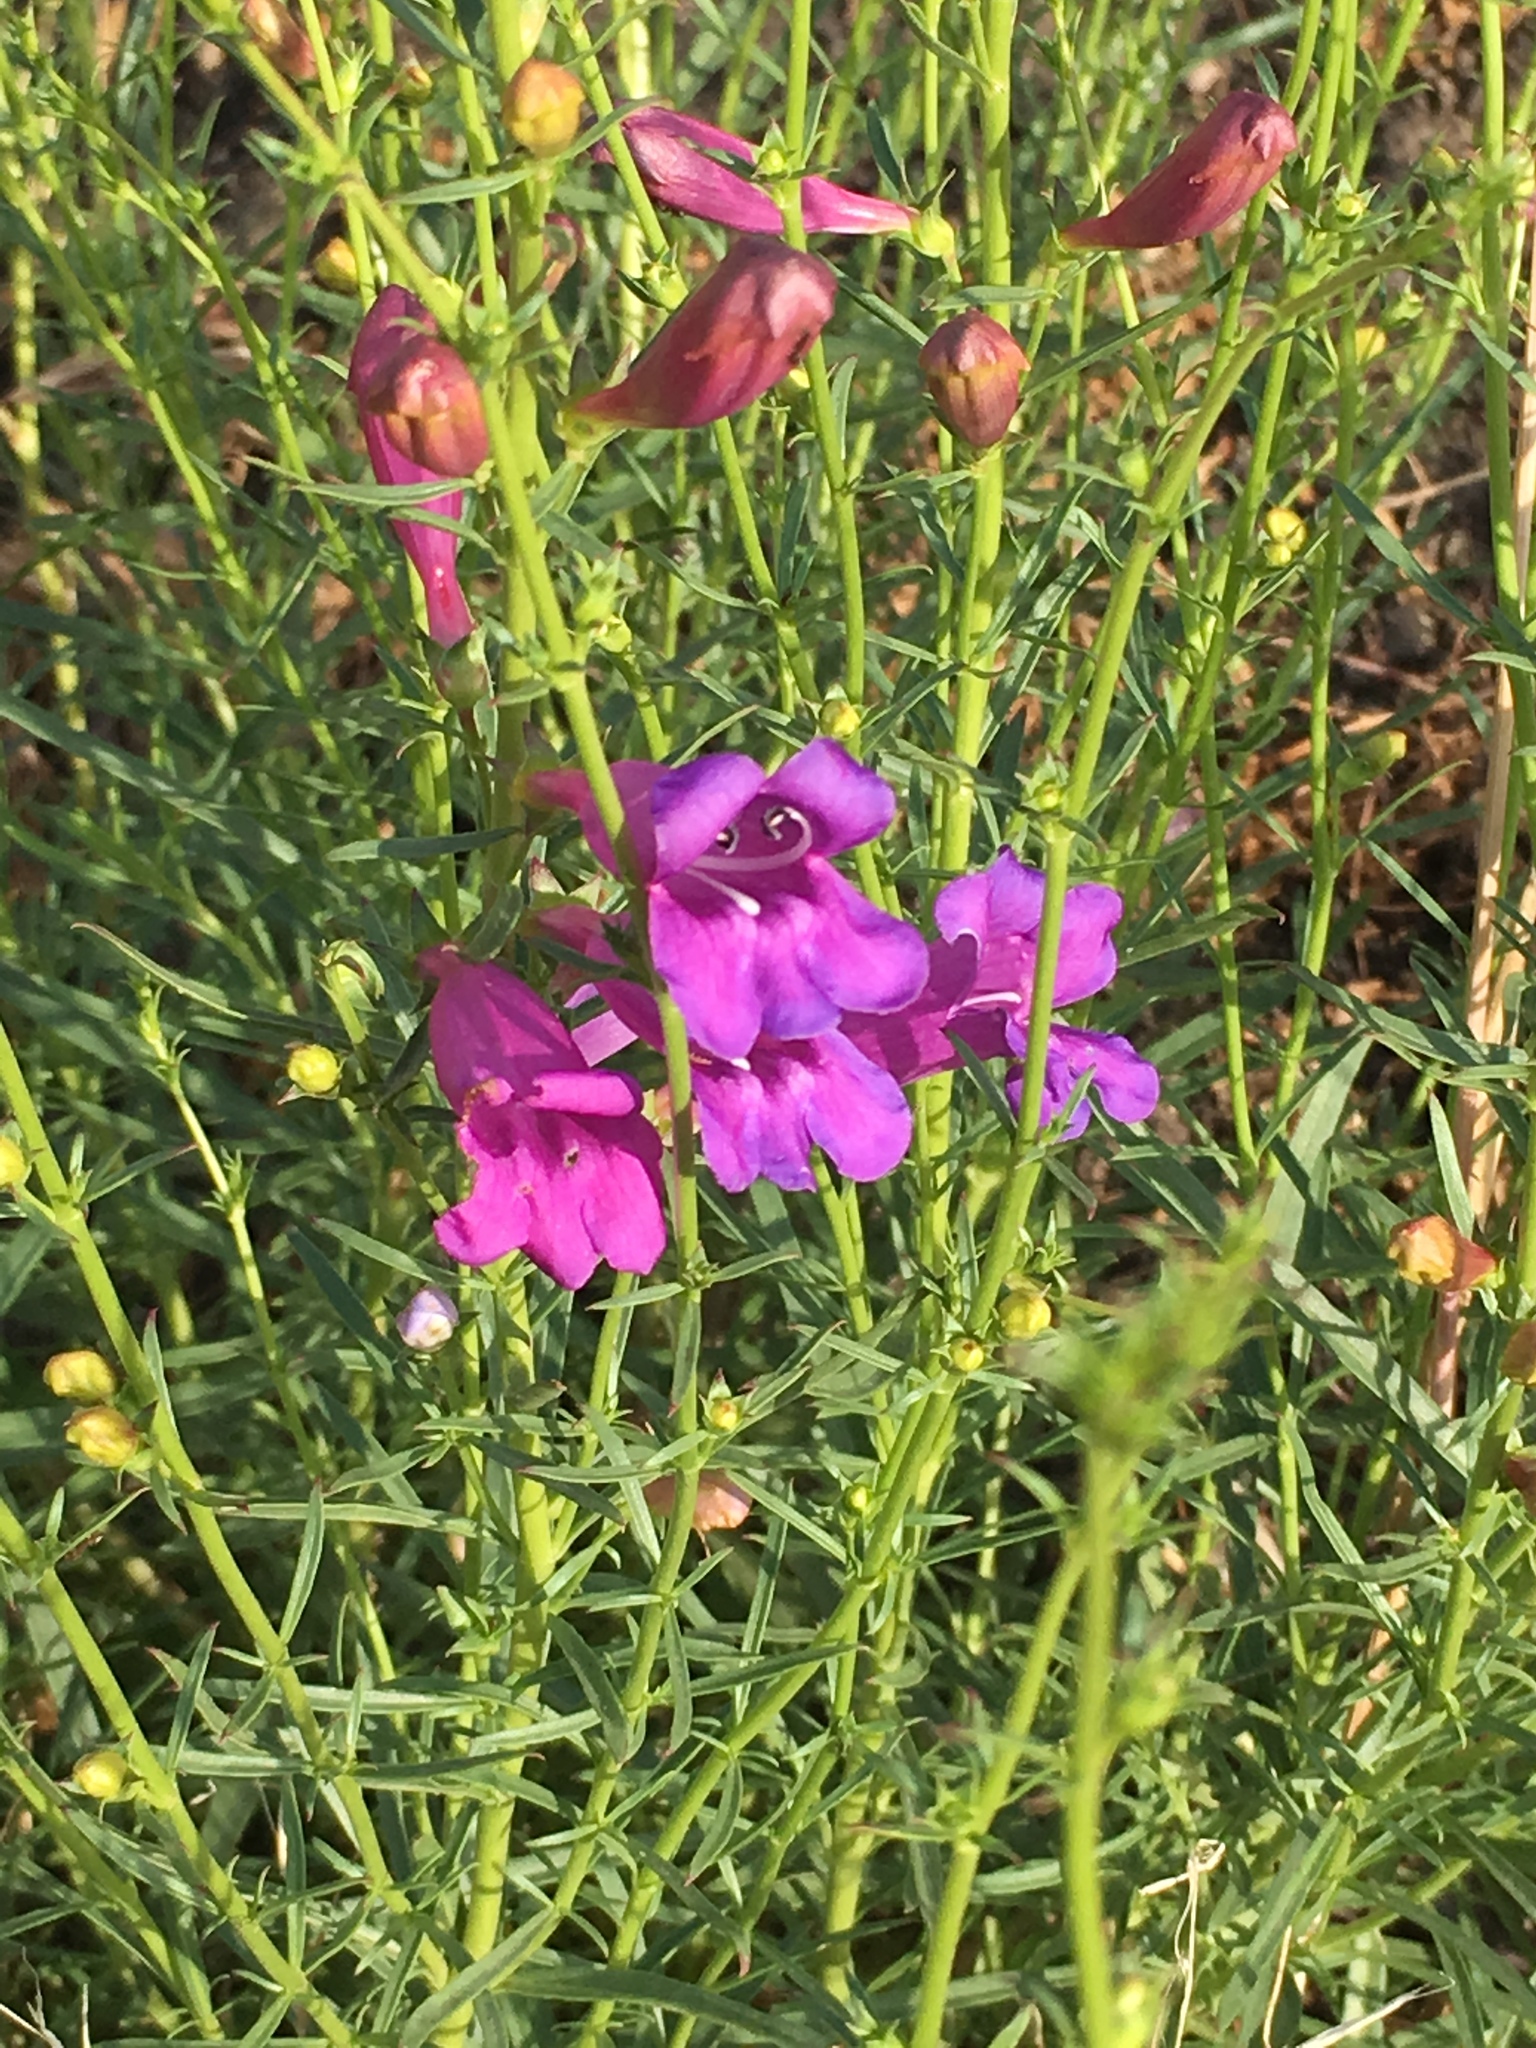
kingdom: Plantae
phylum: Tracheophyta
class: Magnoliopsida
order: Lamiales
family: Plantaginaceae
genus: Penstemon
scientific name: Penstemon heterophyllus
